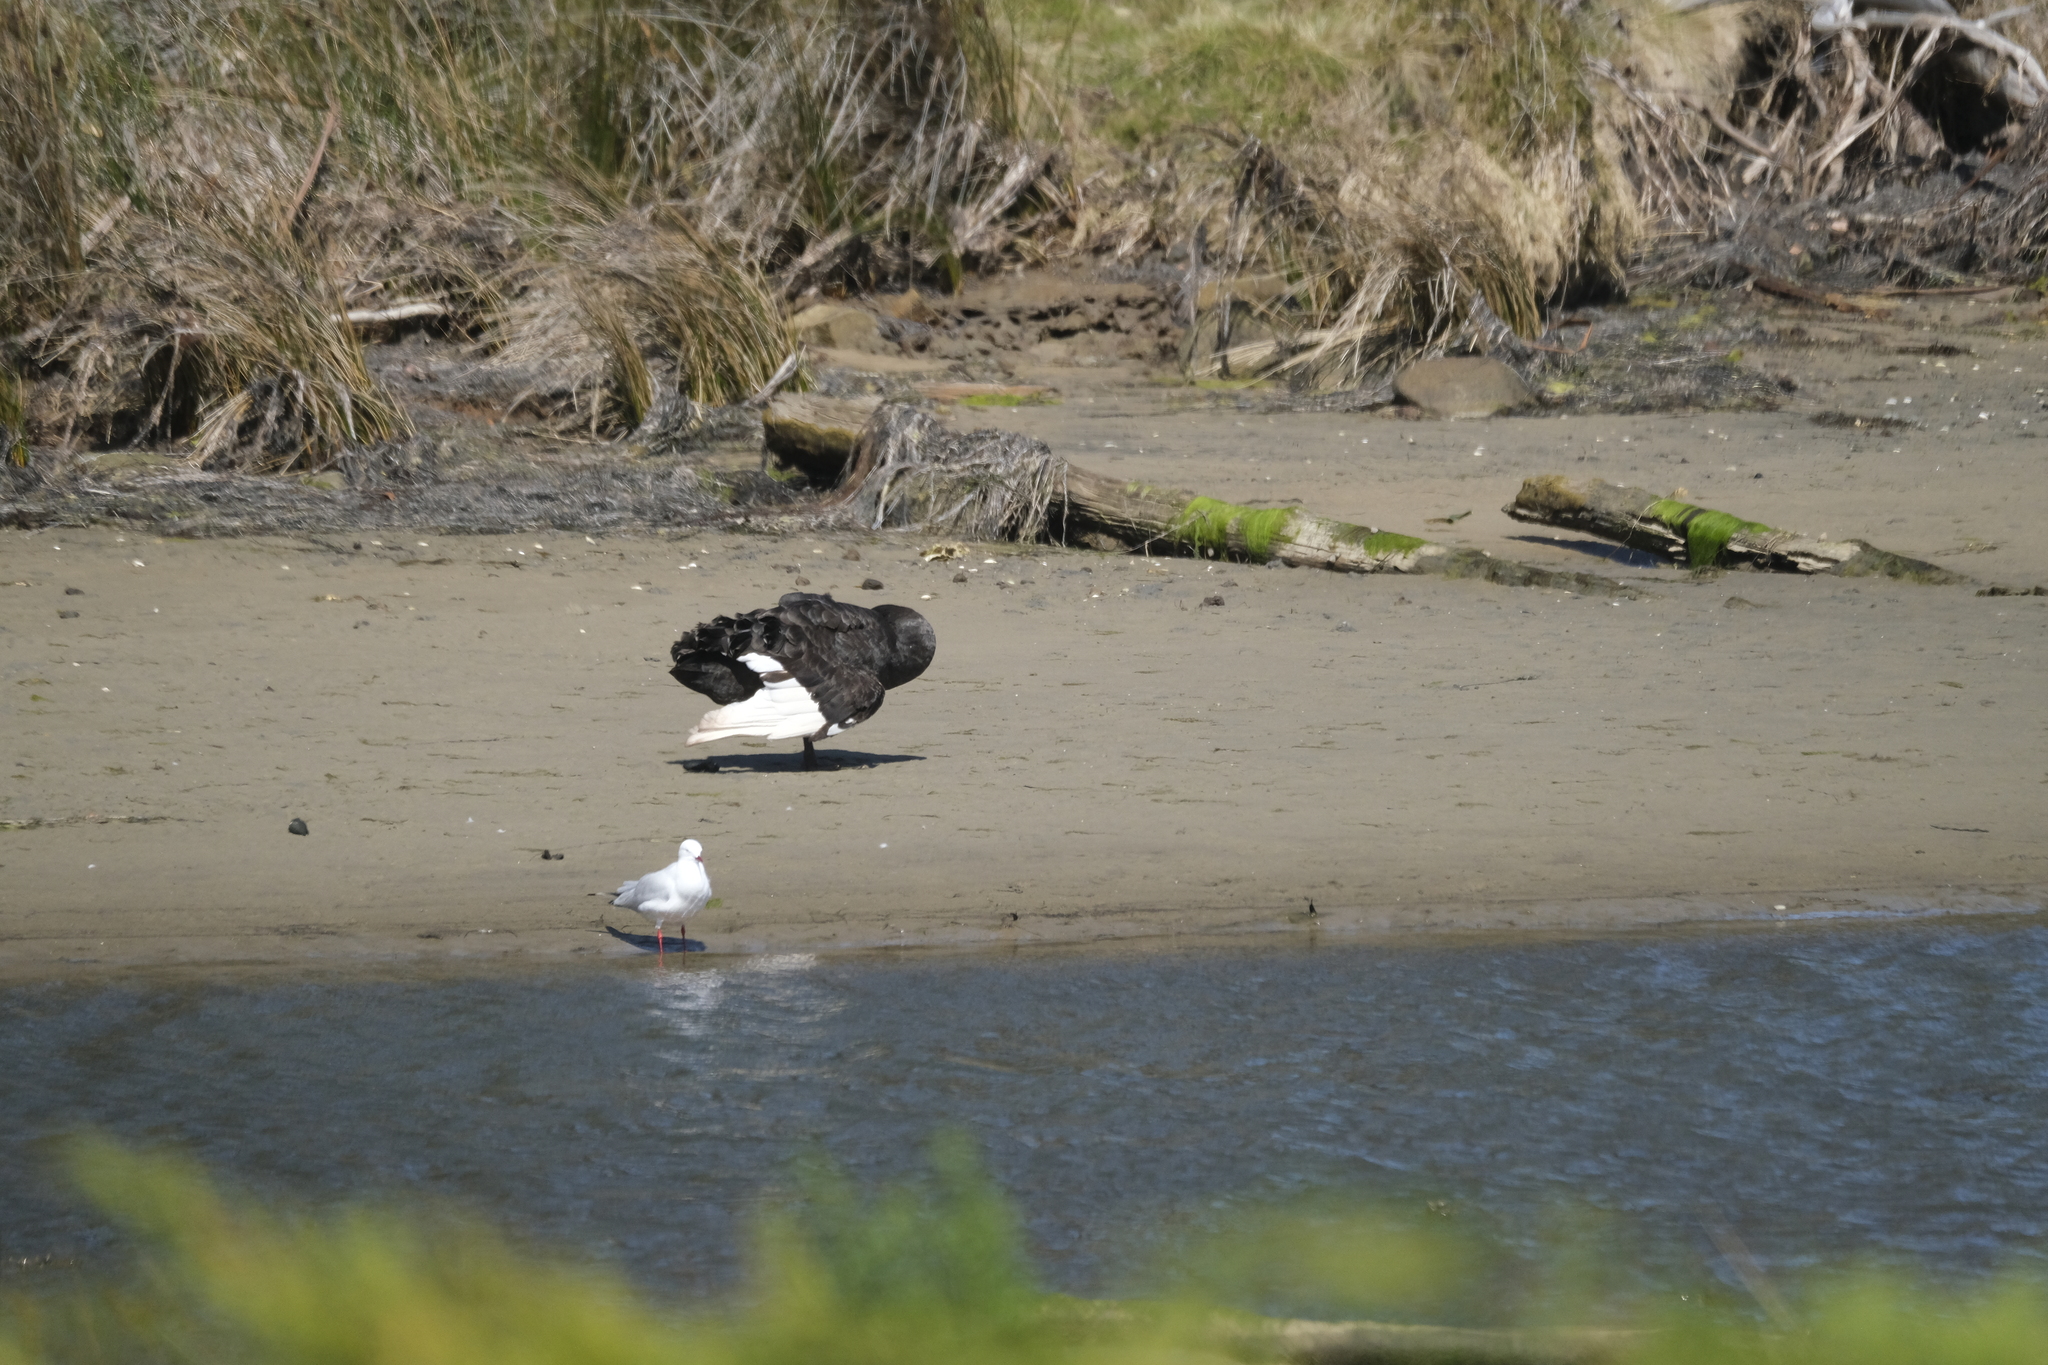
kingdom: Animalia
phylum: Chordata
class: Aves
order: Anseriformes
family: Anatidae
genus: Cygnus
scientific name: Cygnus atratus
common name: Black swan
